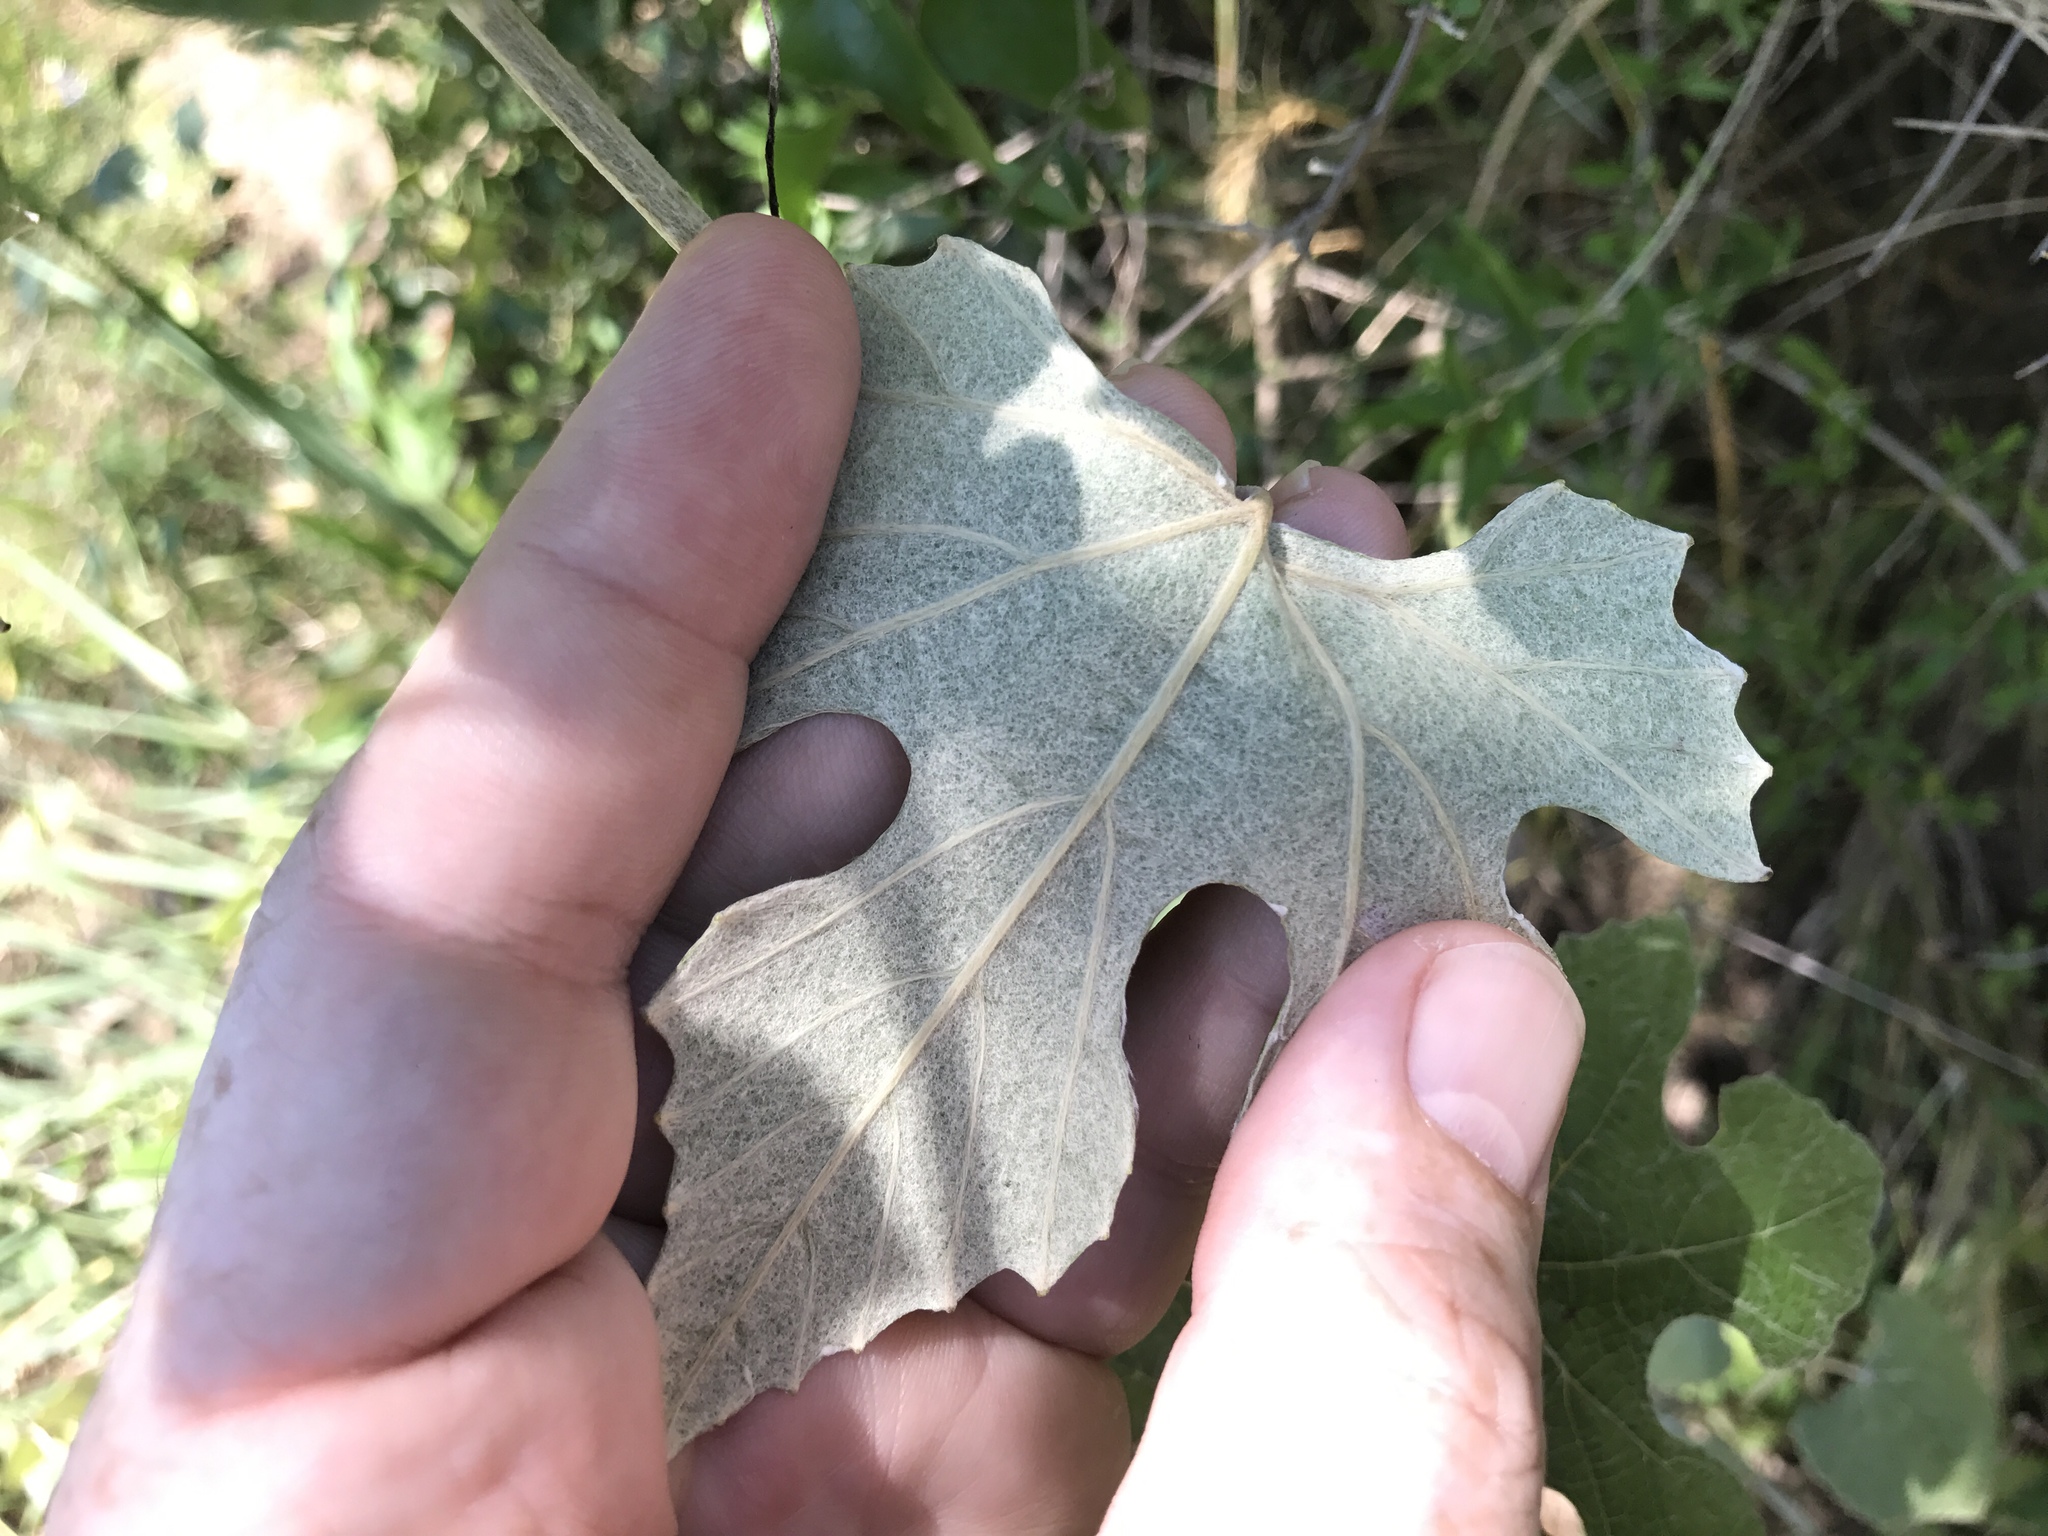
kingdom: Plantae
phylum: Tracheophyta
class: Magnoliopsida
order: Vitales
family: Vitaceae
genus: Vitis
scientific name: Vitis mustangensis
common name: Mustang grape
